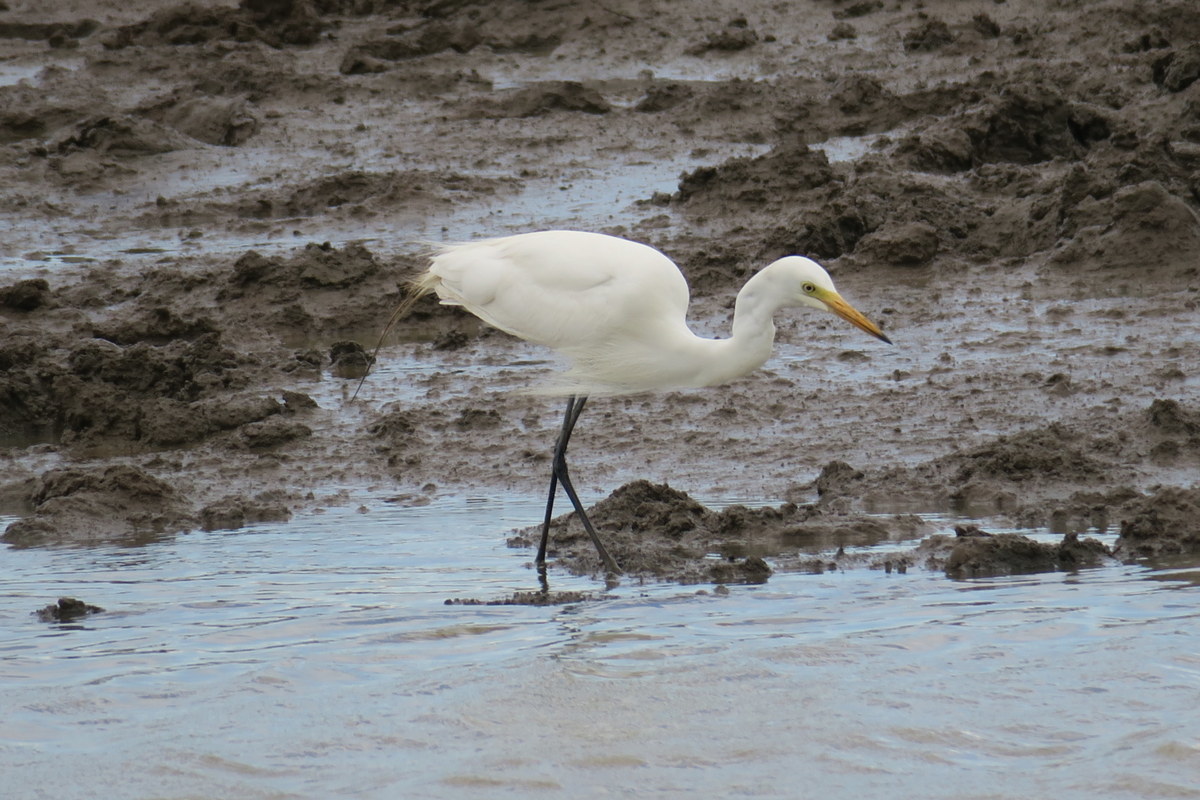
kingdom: Animalia
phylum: Chordata
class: Aves
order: Pelecaniformes
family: Ardeidae
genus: Egretta
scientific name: Egretta intermedia
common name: Intermediate egret
